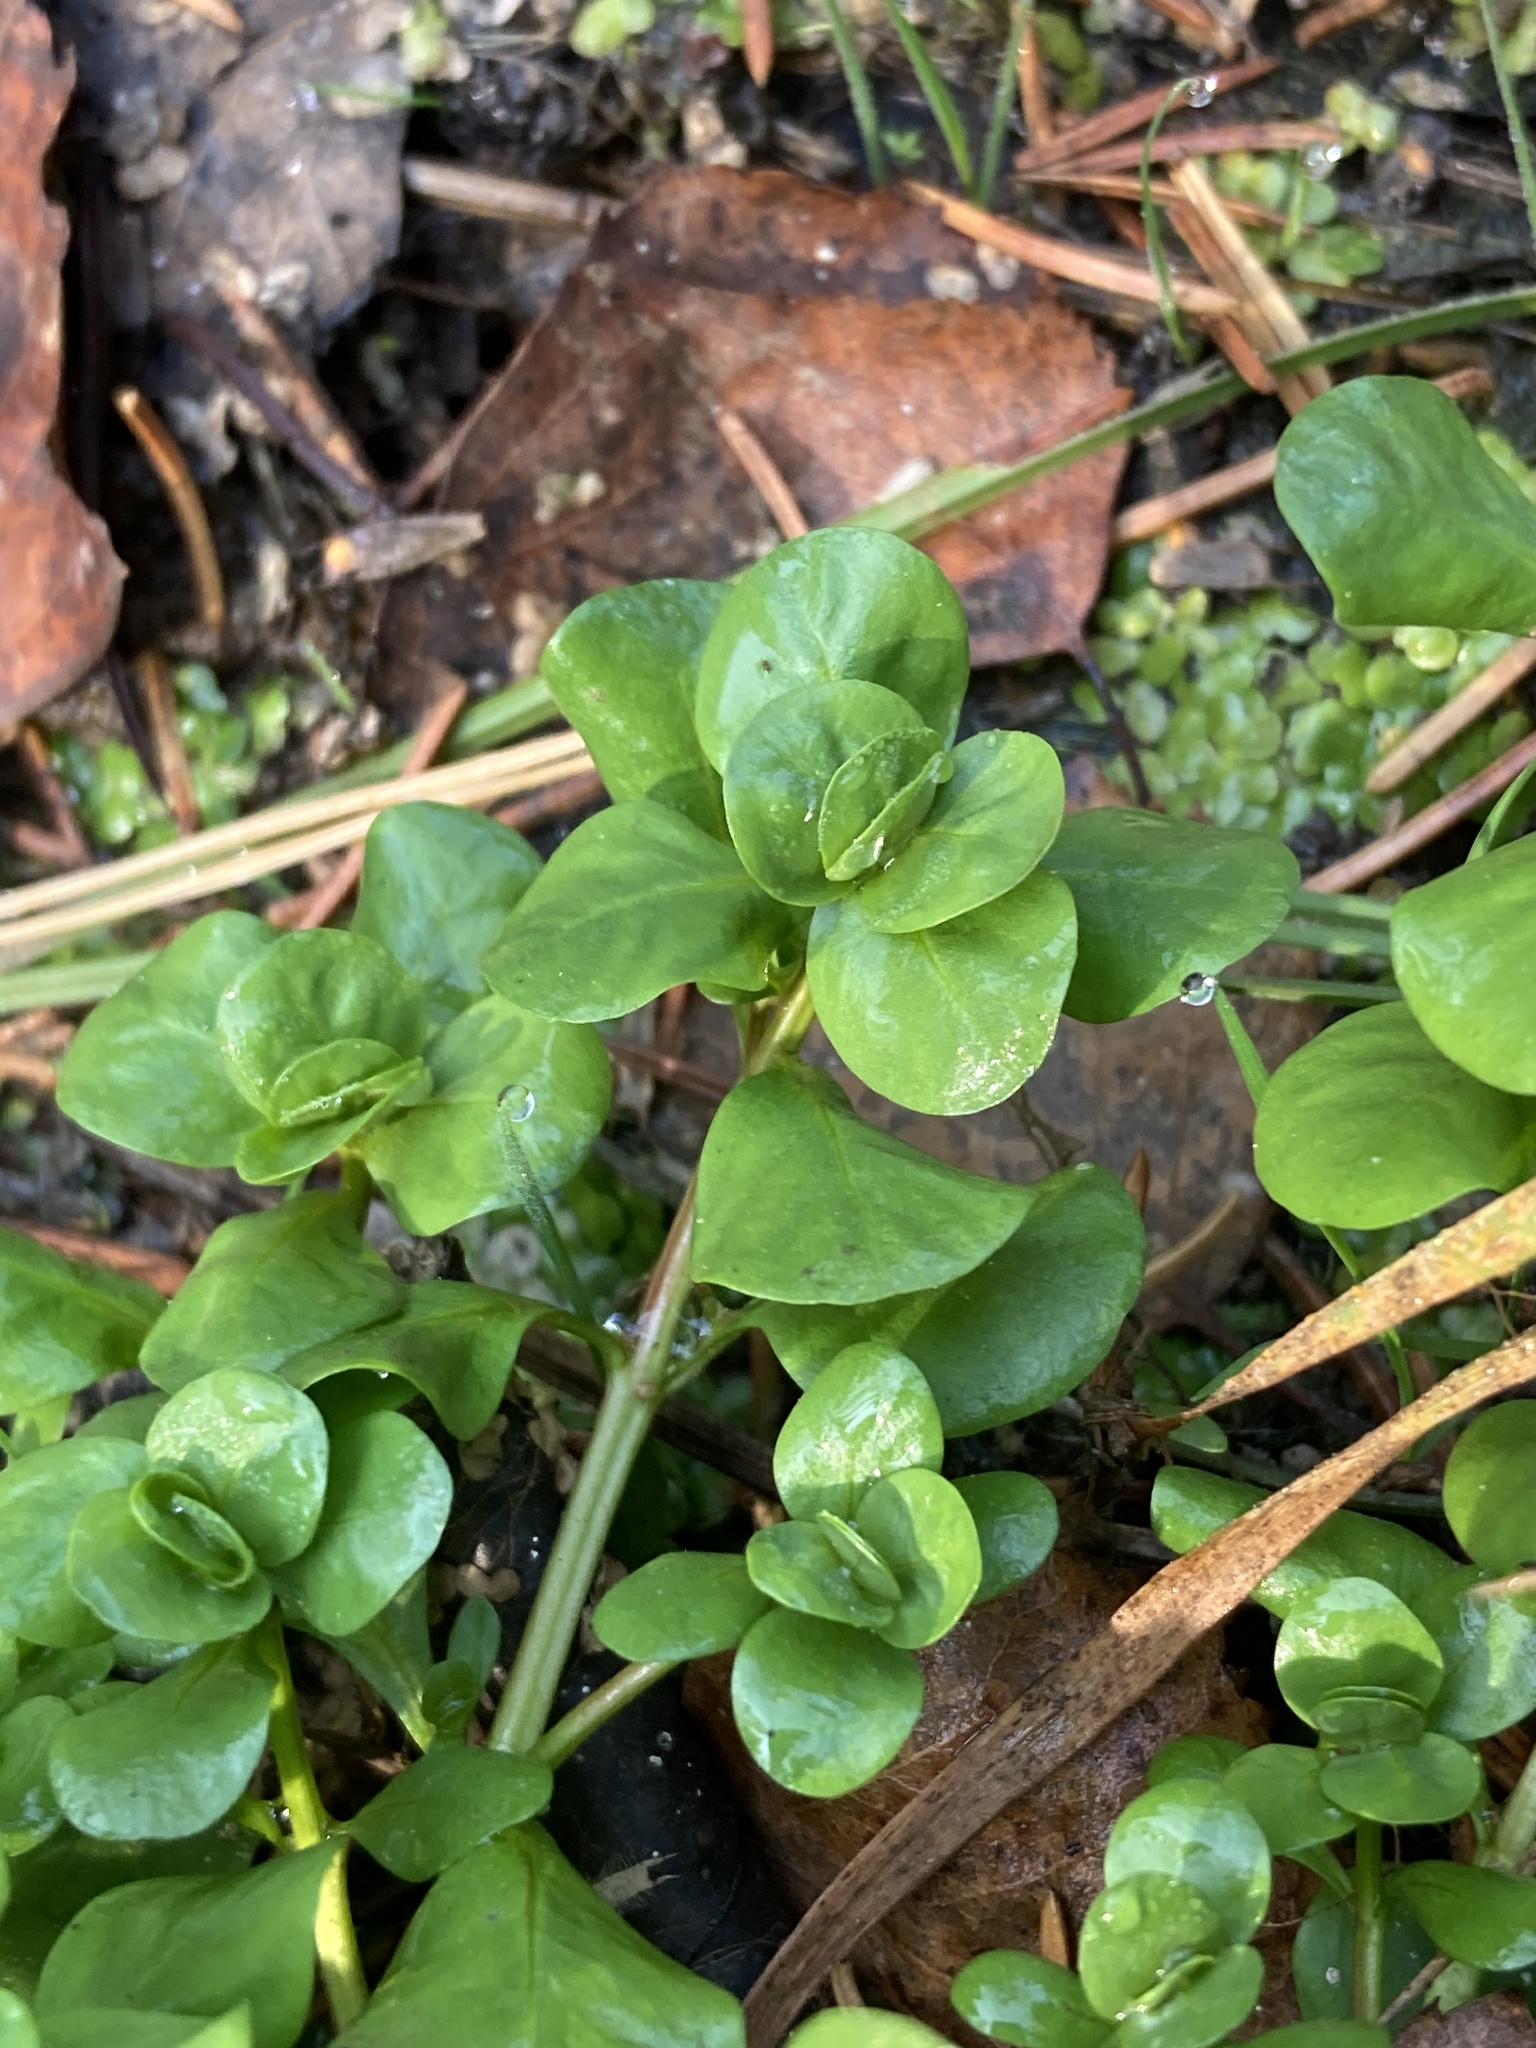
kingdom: Plantae
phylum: Tracheophyta
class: Magnoliopsida
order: Ericales
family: Primulaceae
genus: Lysimachia
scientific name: Lysimachia nummularia
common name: Moneywort
